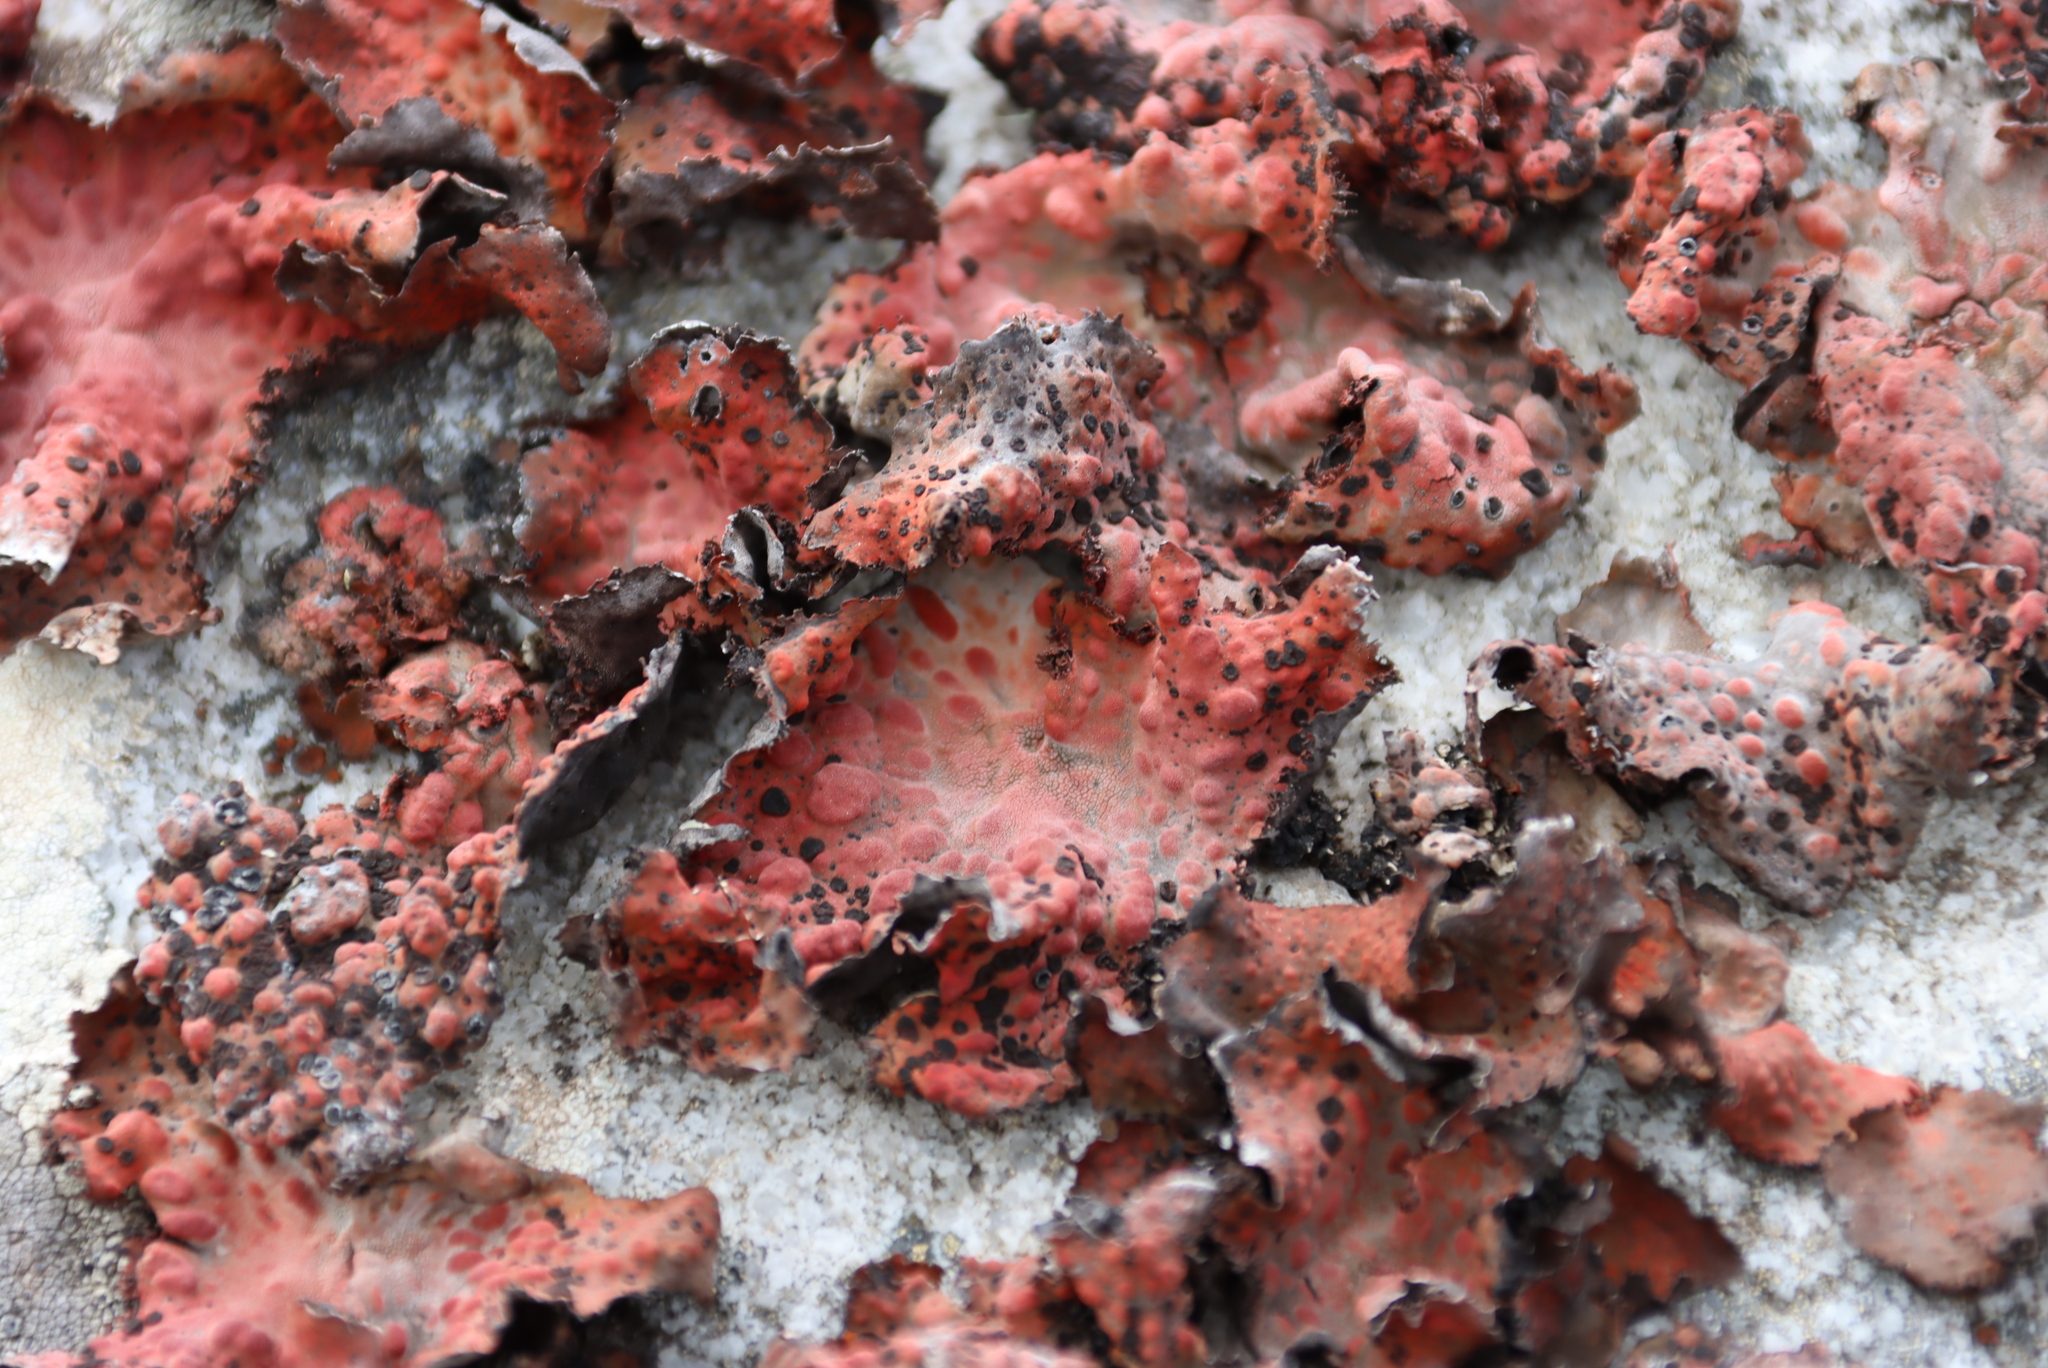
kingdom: Fungi
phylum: Ascomycota
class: Lecanoromycetes
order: Umbilicariales
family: Umbilicariaceae
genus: Lasallia
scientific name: Lasallia rubiginosa
